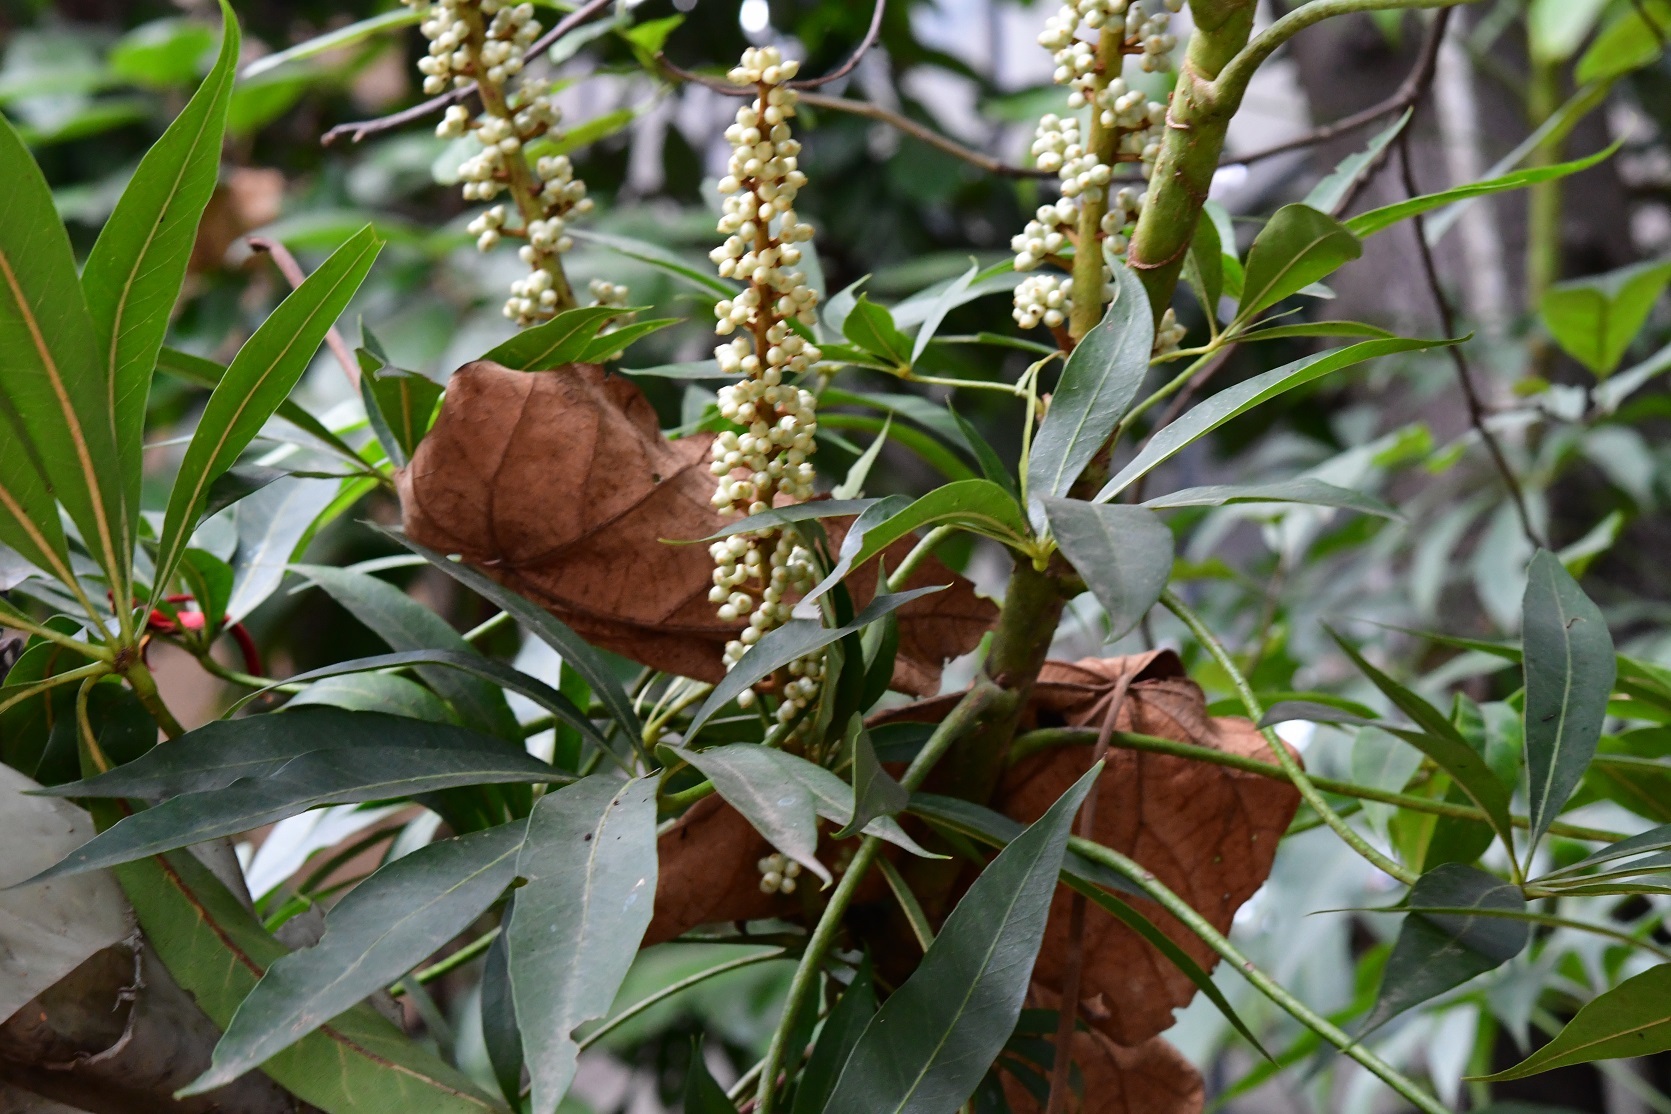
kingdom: Plantae
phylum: Tracheophyta
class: Magnoliopsida
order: Apiales
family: Araliaceae
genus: Oreopanax
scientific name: Oreopanax xalapensis
